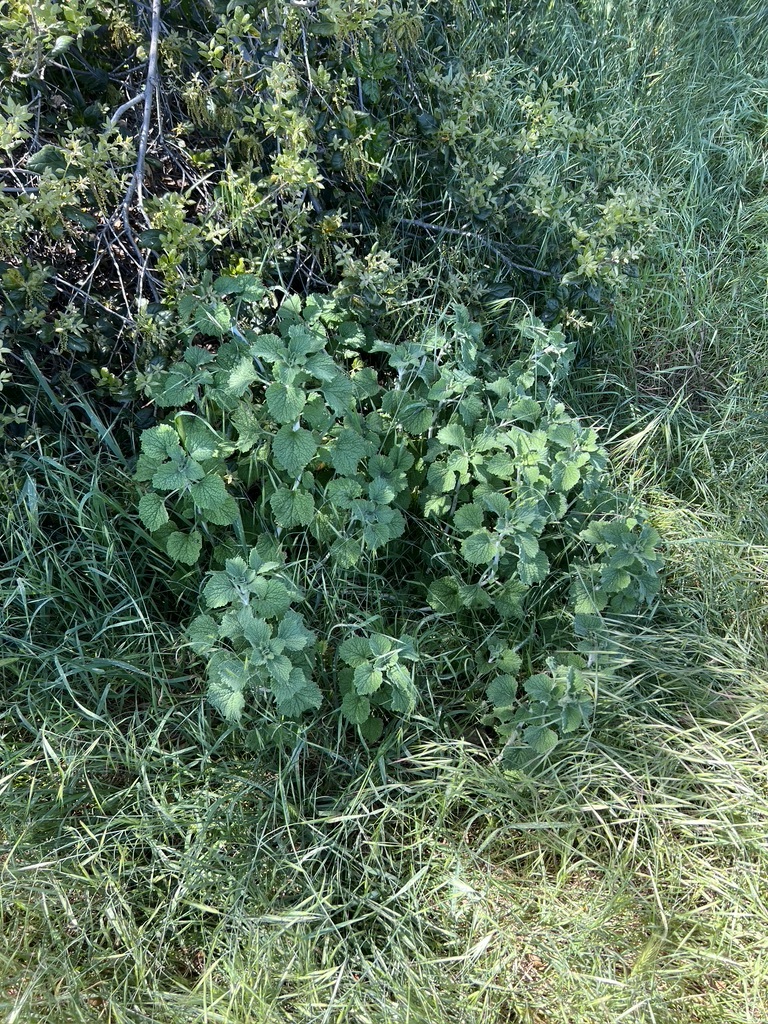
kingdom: Plantae
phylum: Tracheophyta
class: Magnoliopsida
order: Lamiales
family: Lamiaceae
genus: Marrubium
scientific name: Marrubium vulgare
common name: Horehound
